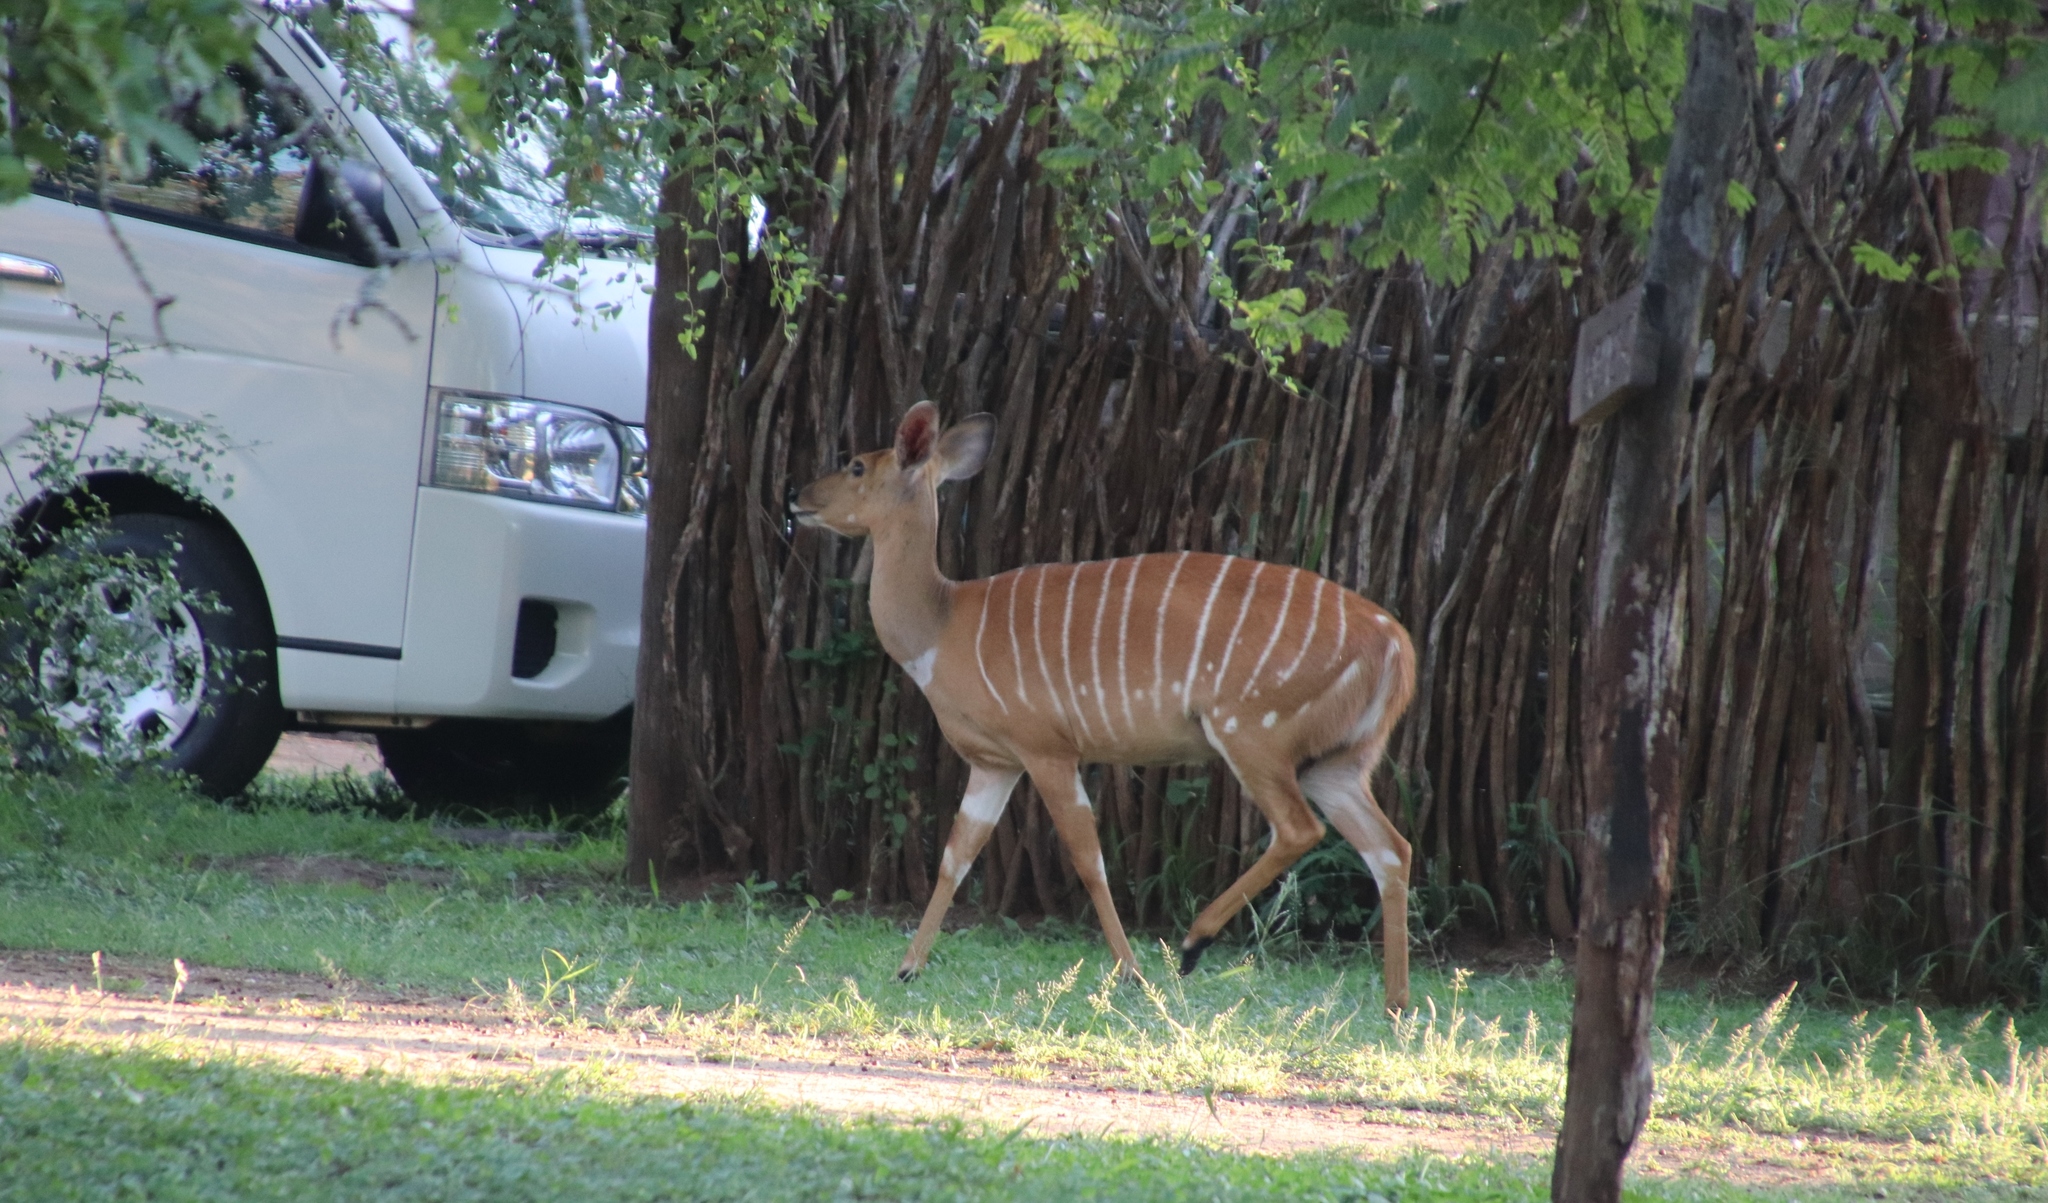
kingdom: Animalia
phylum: Chordata
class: Mammalia
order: Artiodactyla
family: Bovidae
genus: Tragelaphus
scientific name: Tragelaphus angasii
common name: Nyala
